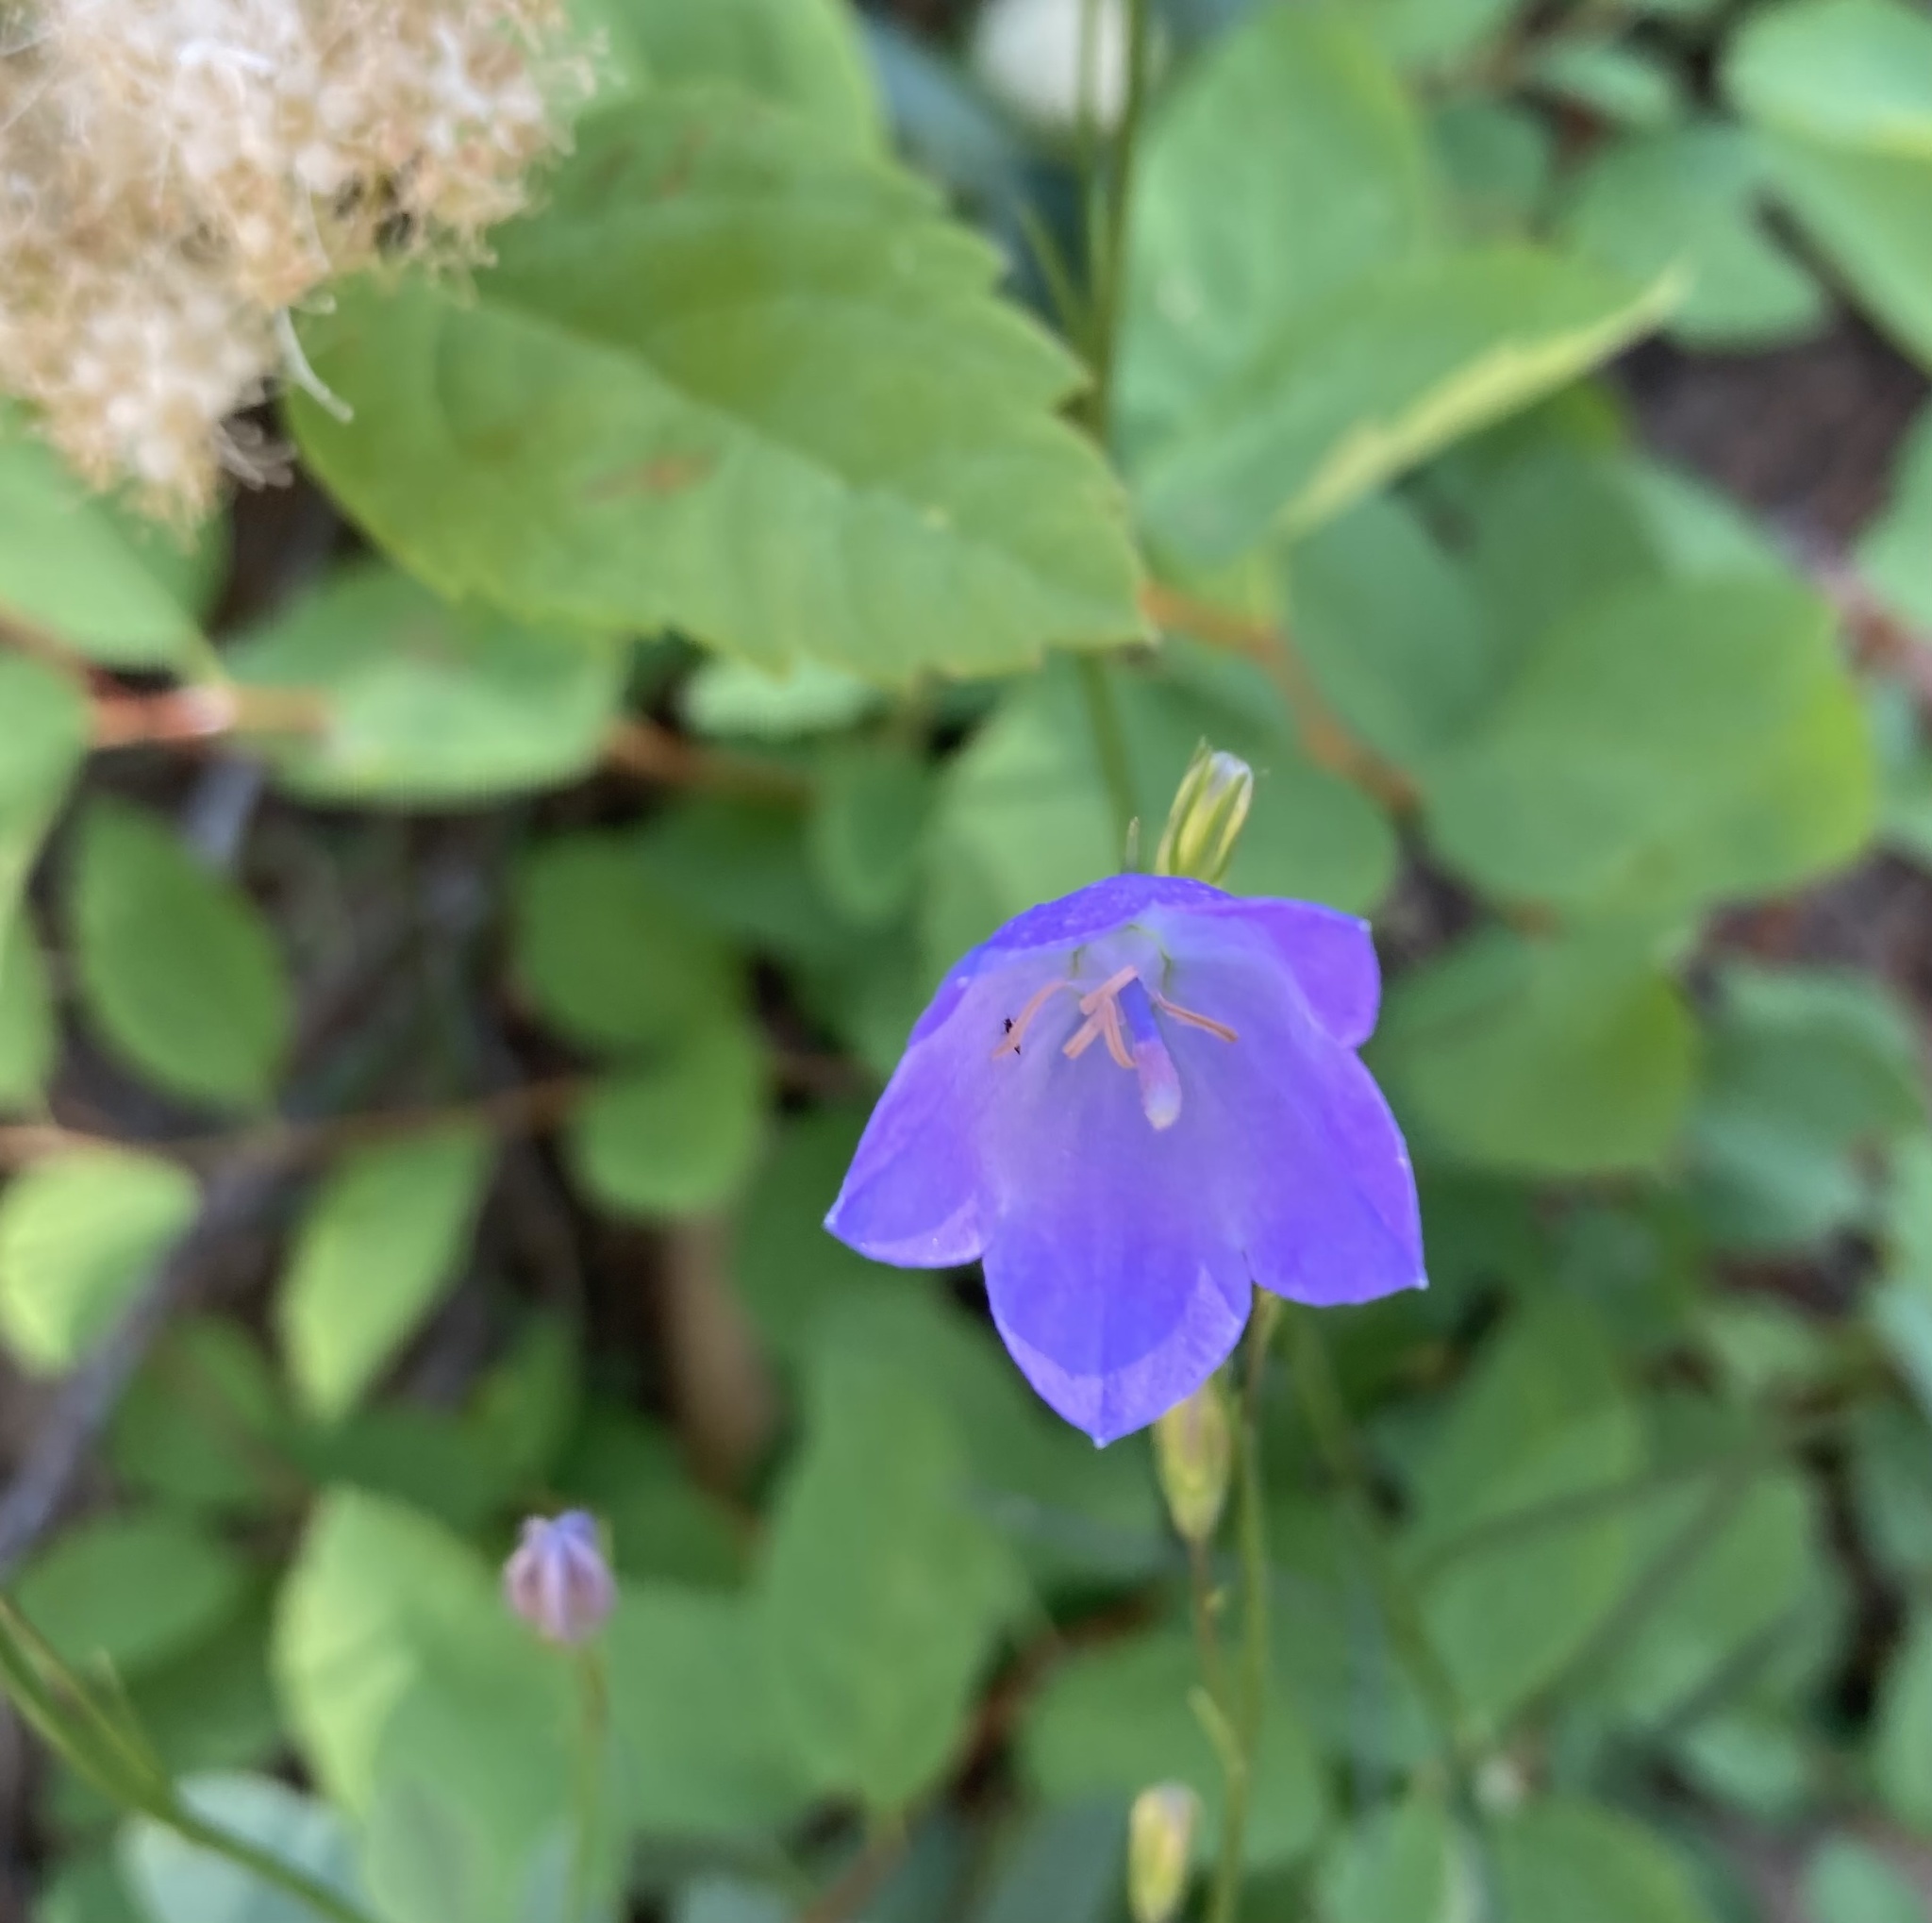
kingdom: Plantae
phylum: Tracheophyta
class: Magnoliopsida
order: Asterales
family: Campanulaceae
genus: Campanula
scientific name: Campanula alaskana
